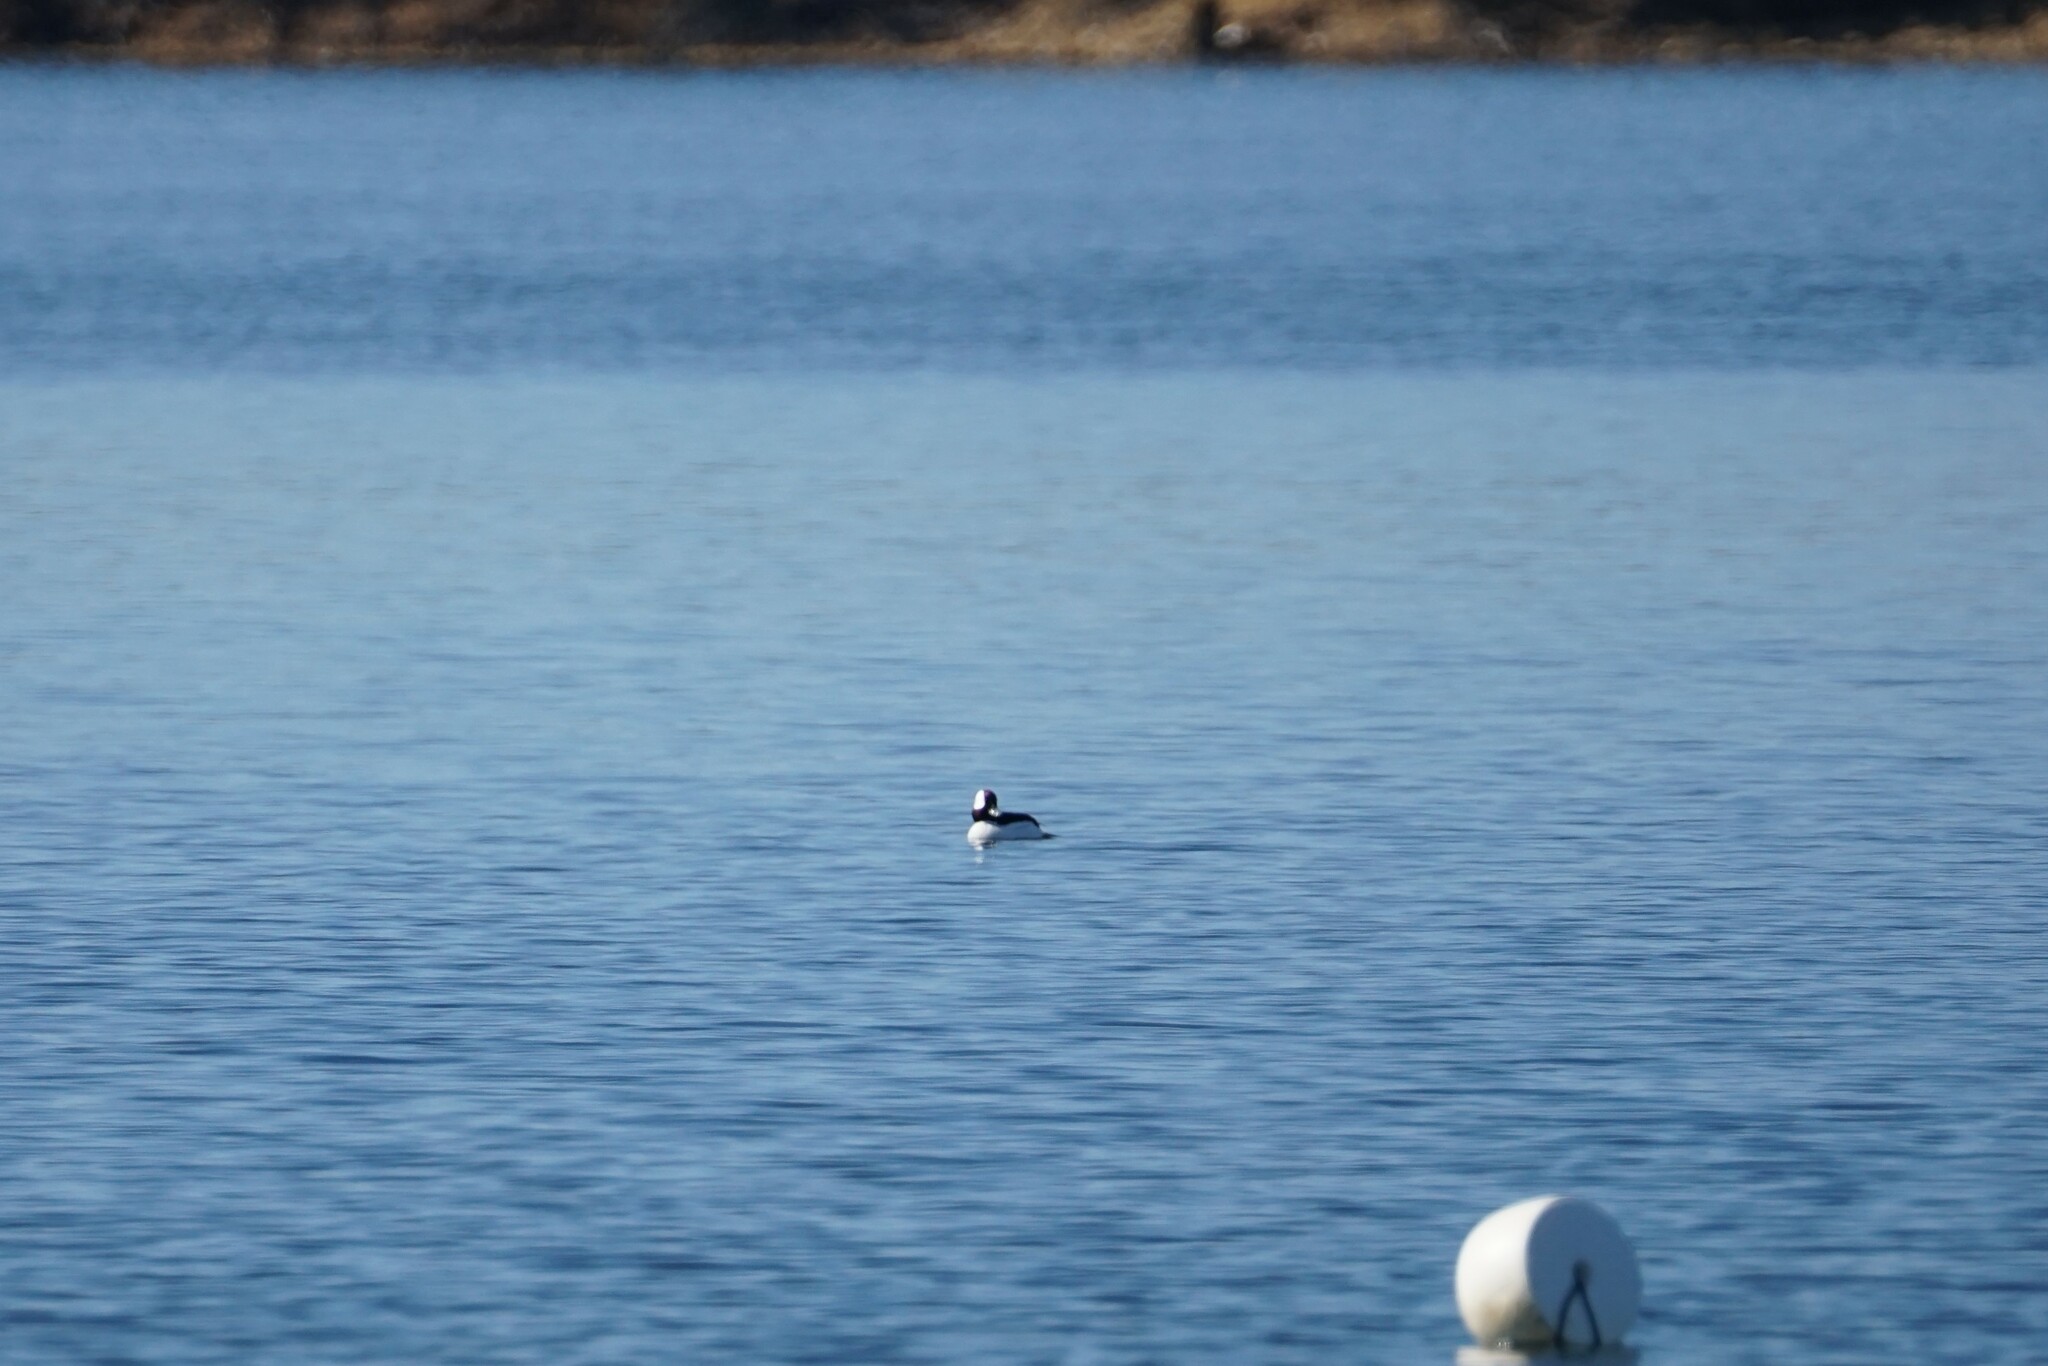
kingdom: Animalia
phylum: Chordata
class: Aves
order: Anseriformes
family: Anatidae
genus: Bucephala
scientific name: Bucephala albeola
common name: Bufflehead
